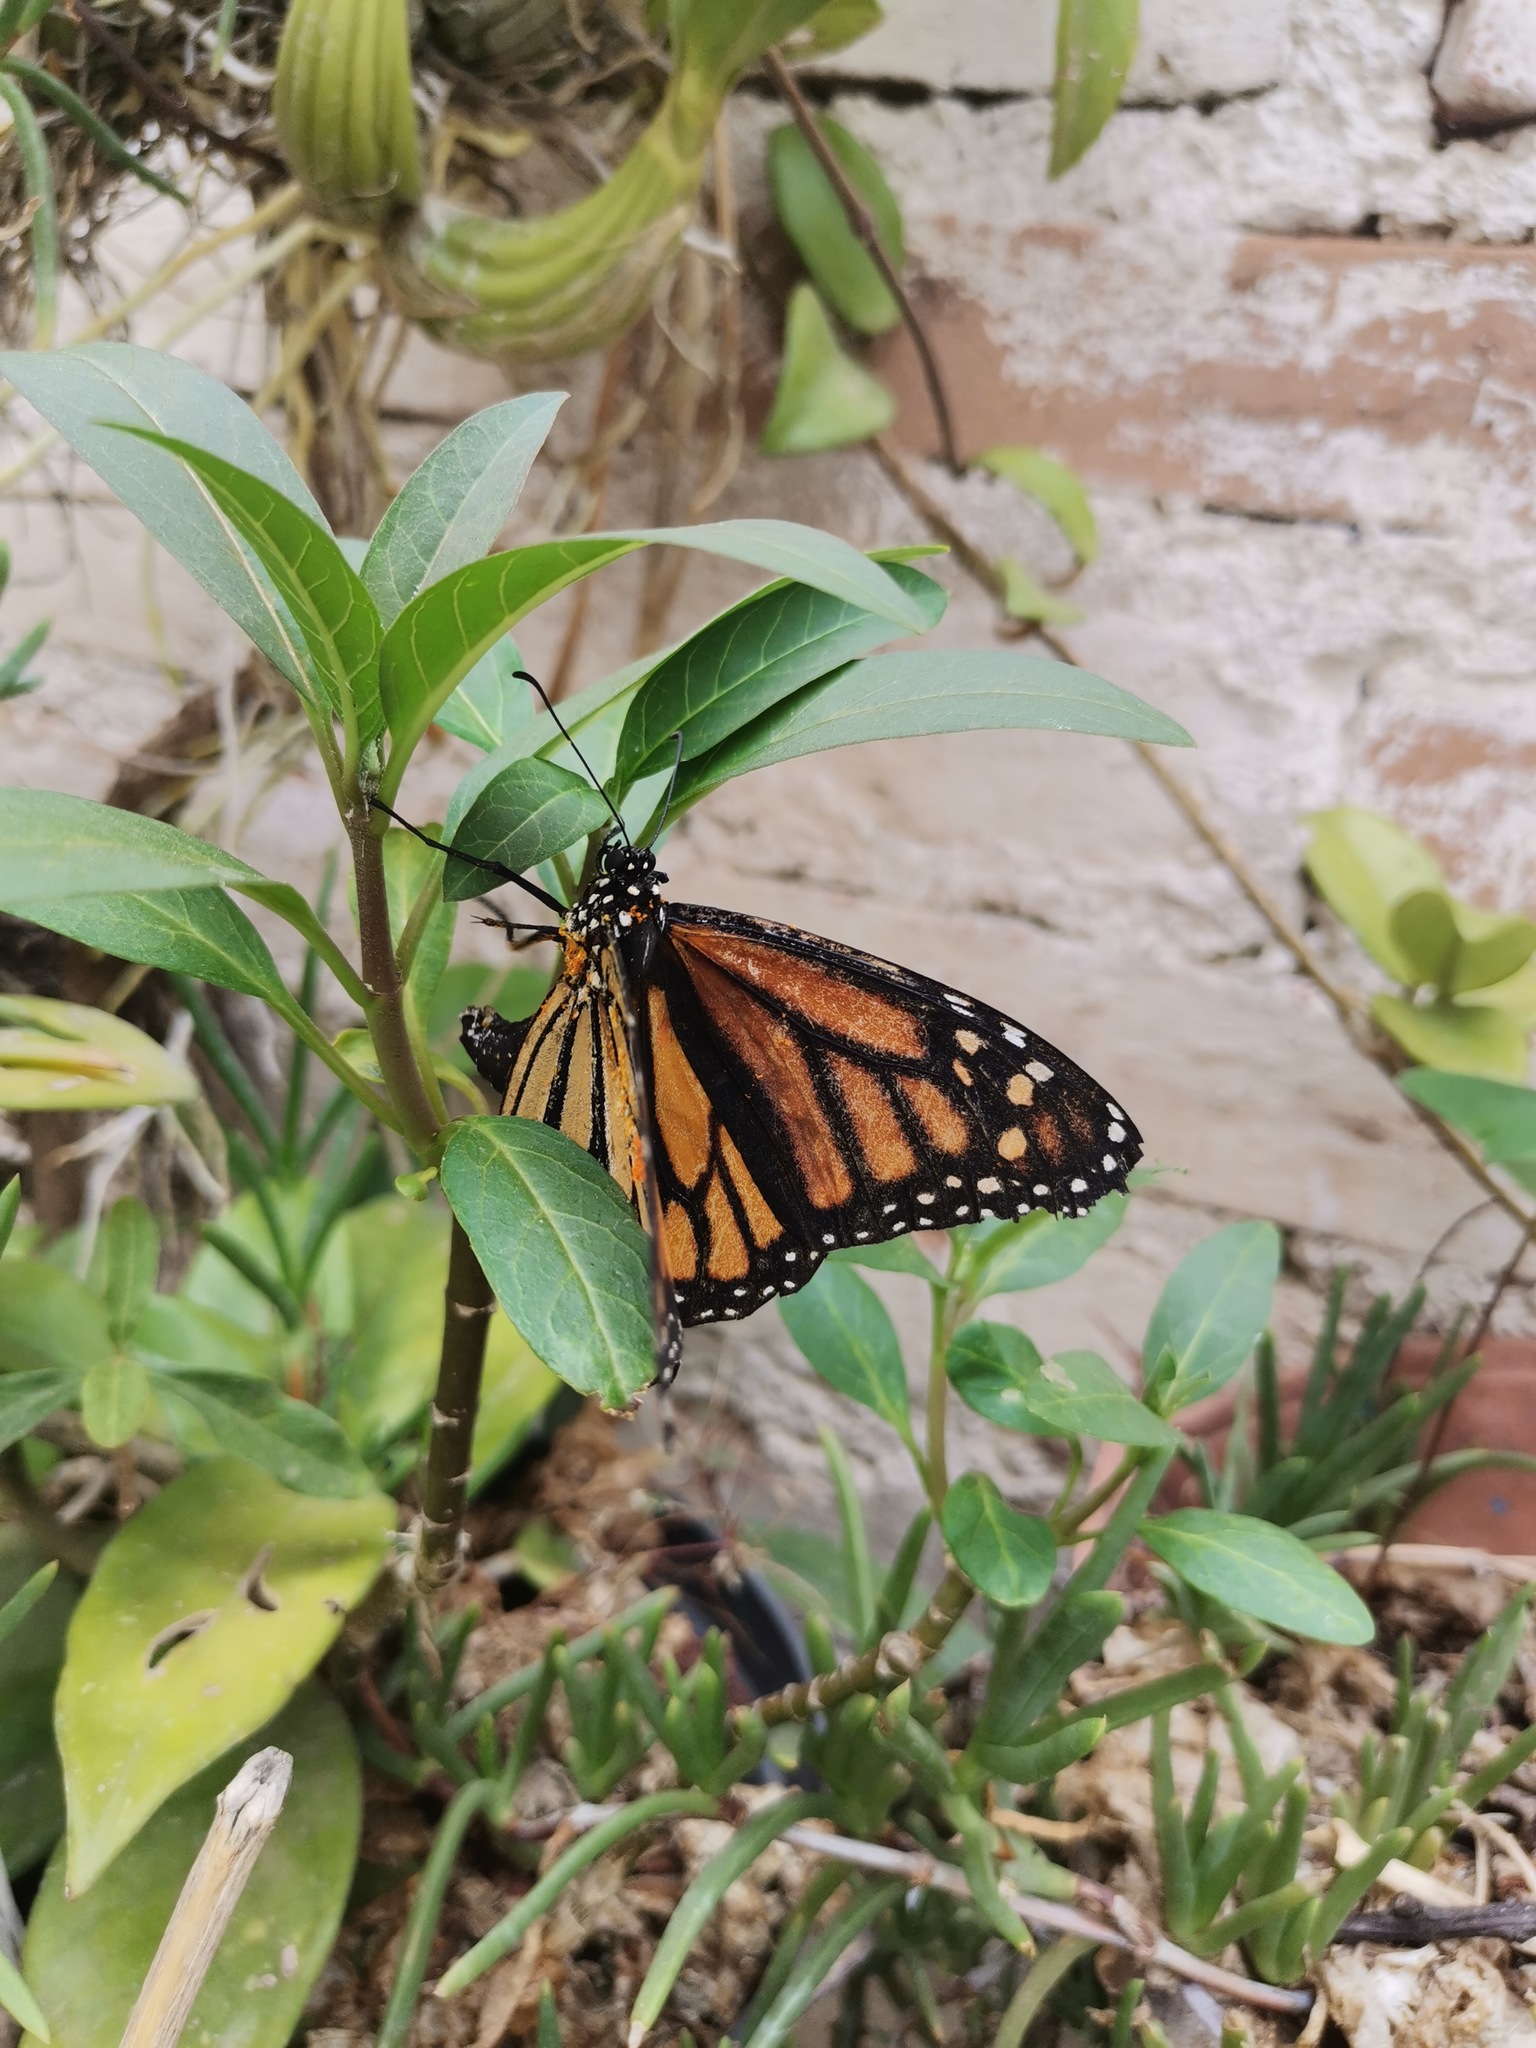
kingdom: Animalia
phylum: Arthropoda
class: Insecta
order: Lepidoptera
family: Nymphalidae
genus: Danaus
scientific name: Danaus plexippus
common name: Monarch
